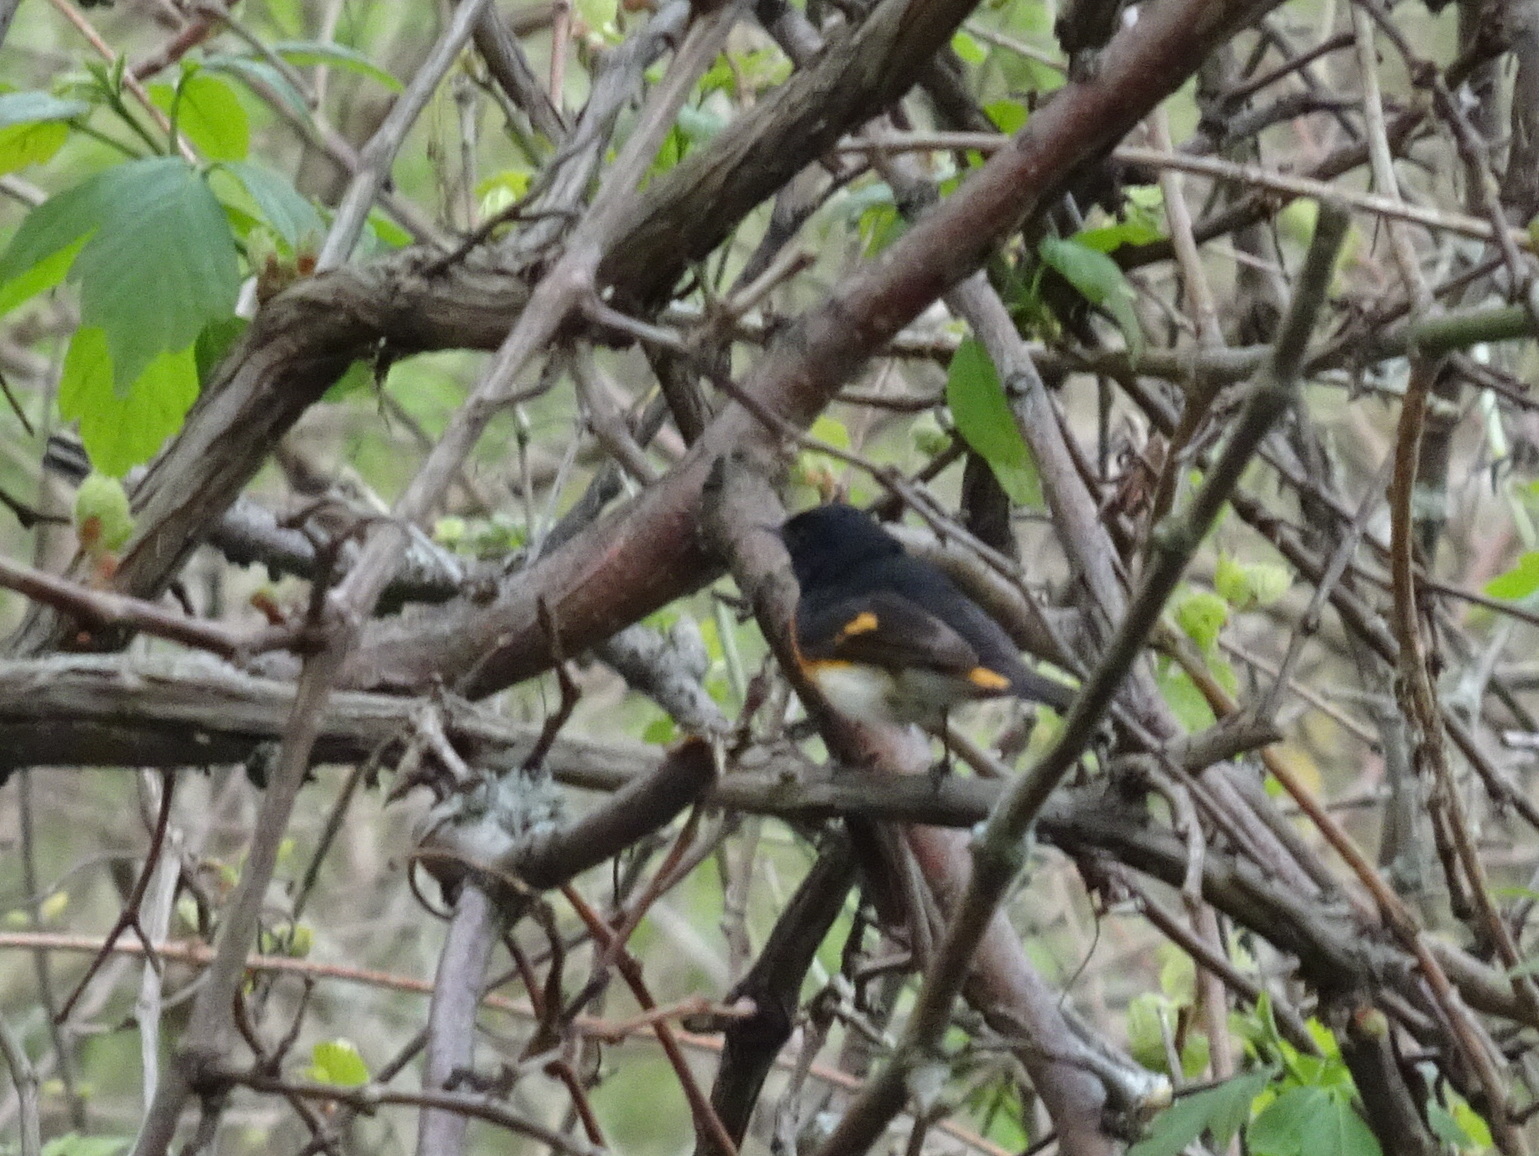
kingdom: Animalia
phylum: Chordata
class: Aves
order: Passeriformes
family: Parulidae
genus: Setophaga
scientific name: Setophaga ruticilla
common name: American redstart
